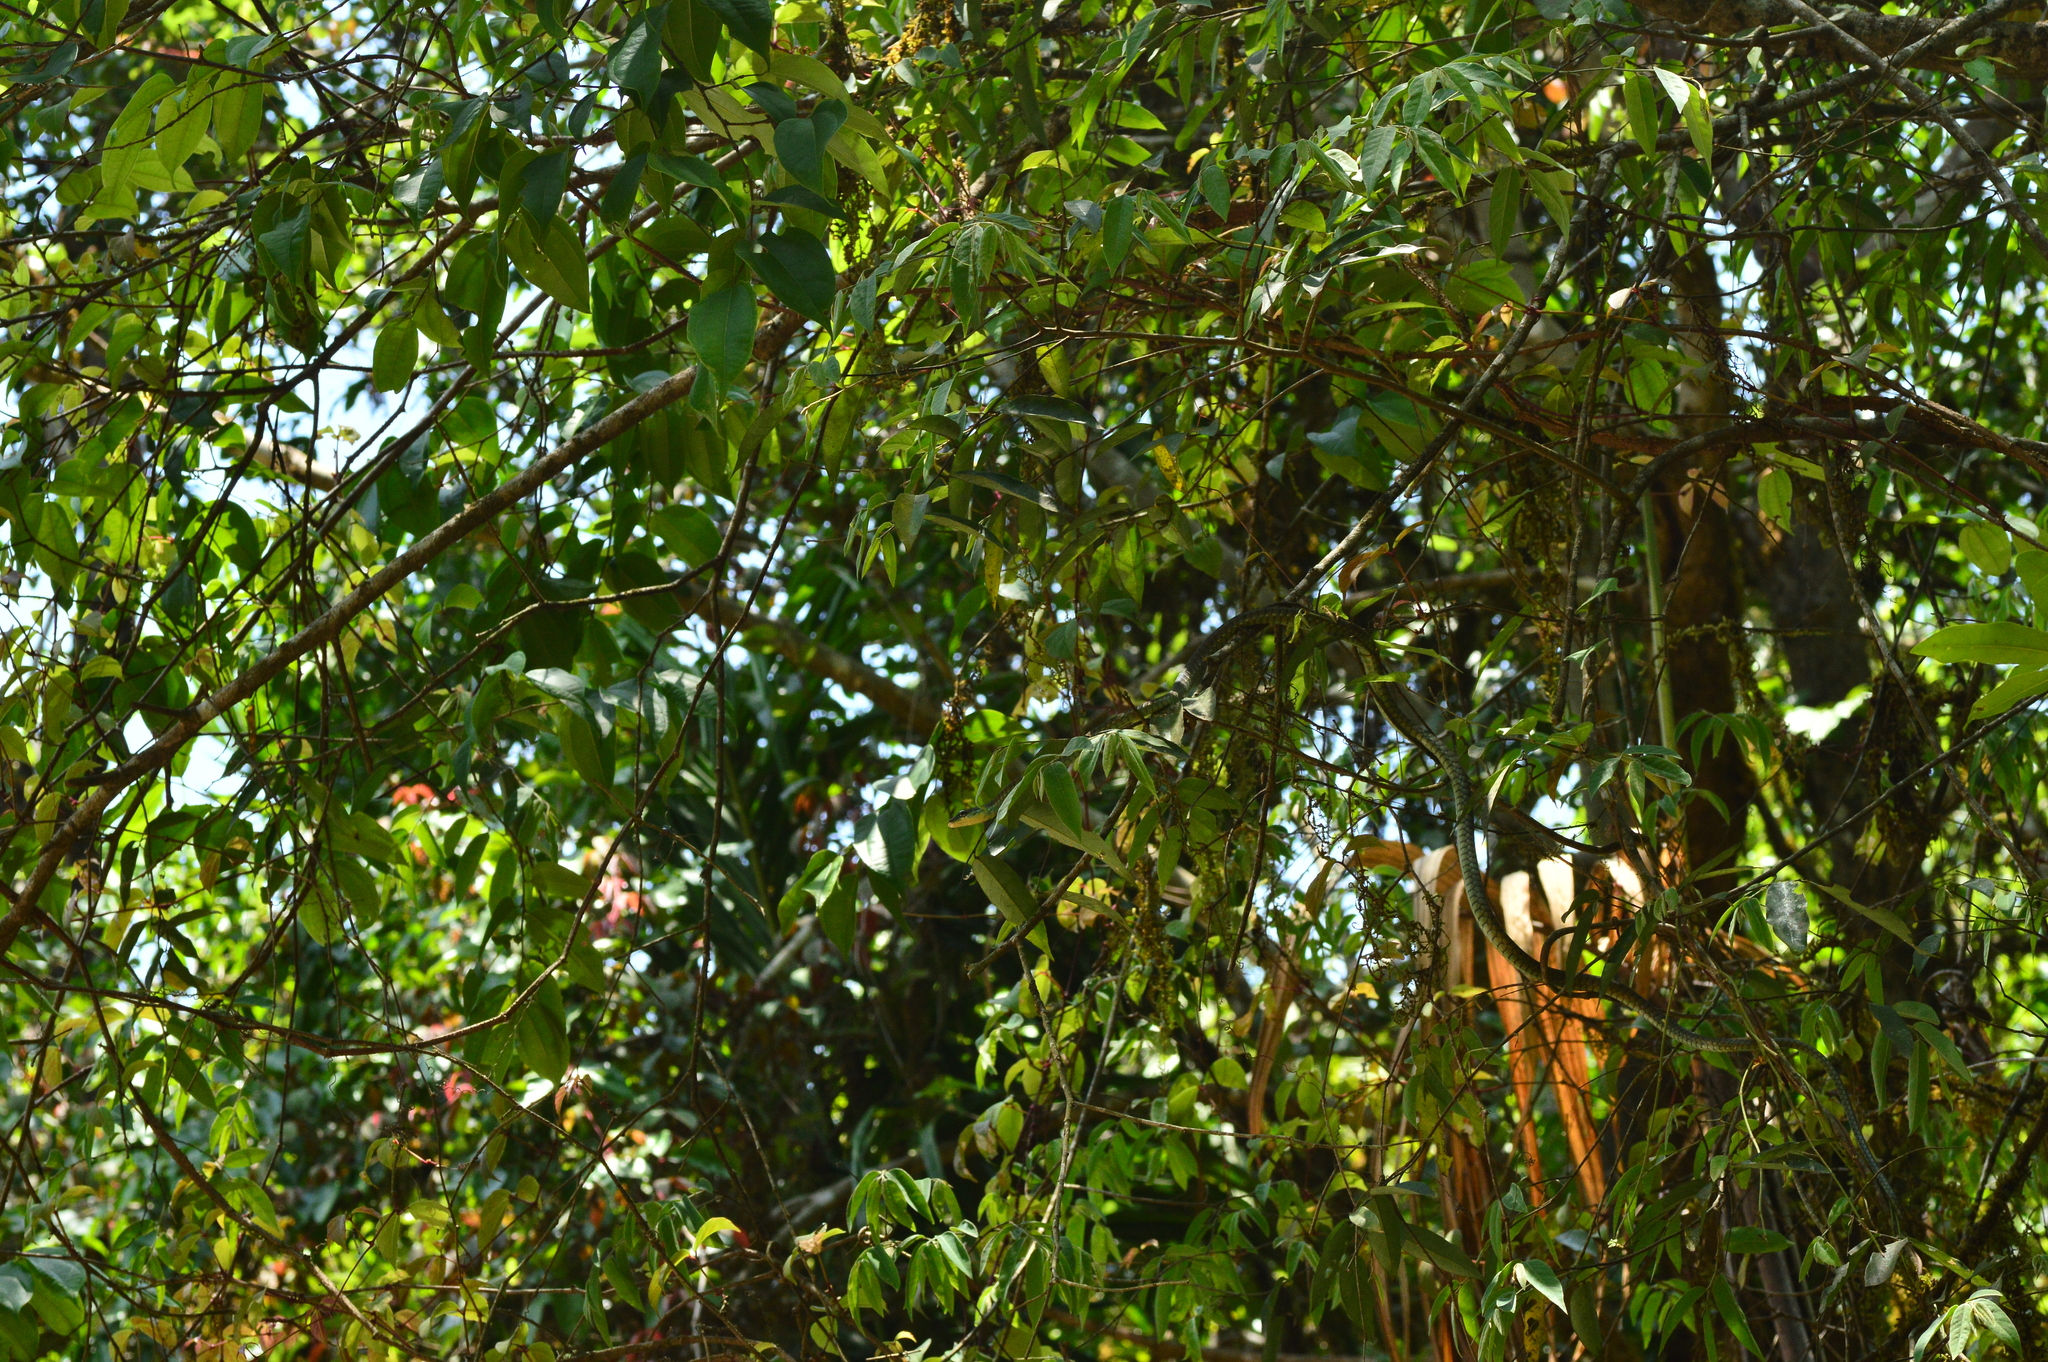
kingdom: Animalia
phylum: Chordata
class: Squamata
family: Colubridae
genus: Dendrelaphis
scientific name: Dendrelaphis grandoculis
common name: Southern bronzeback
